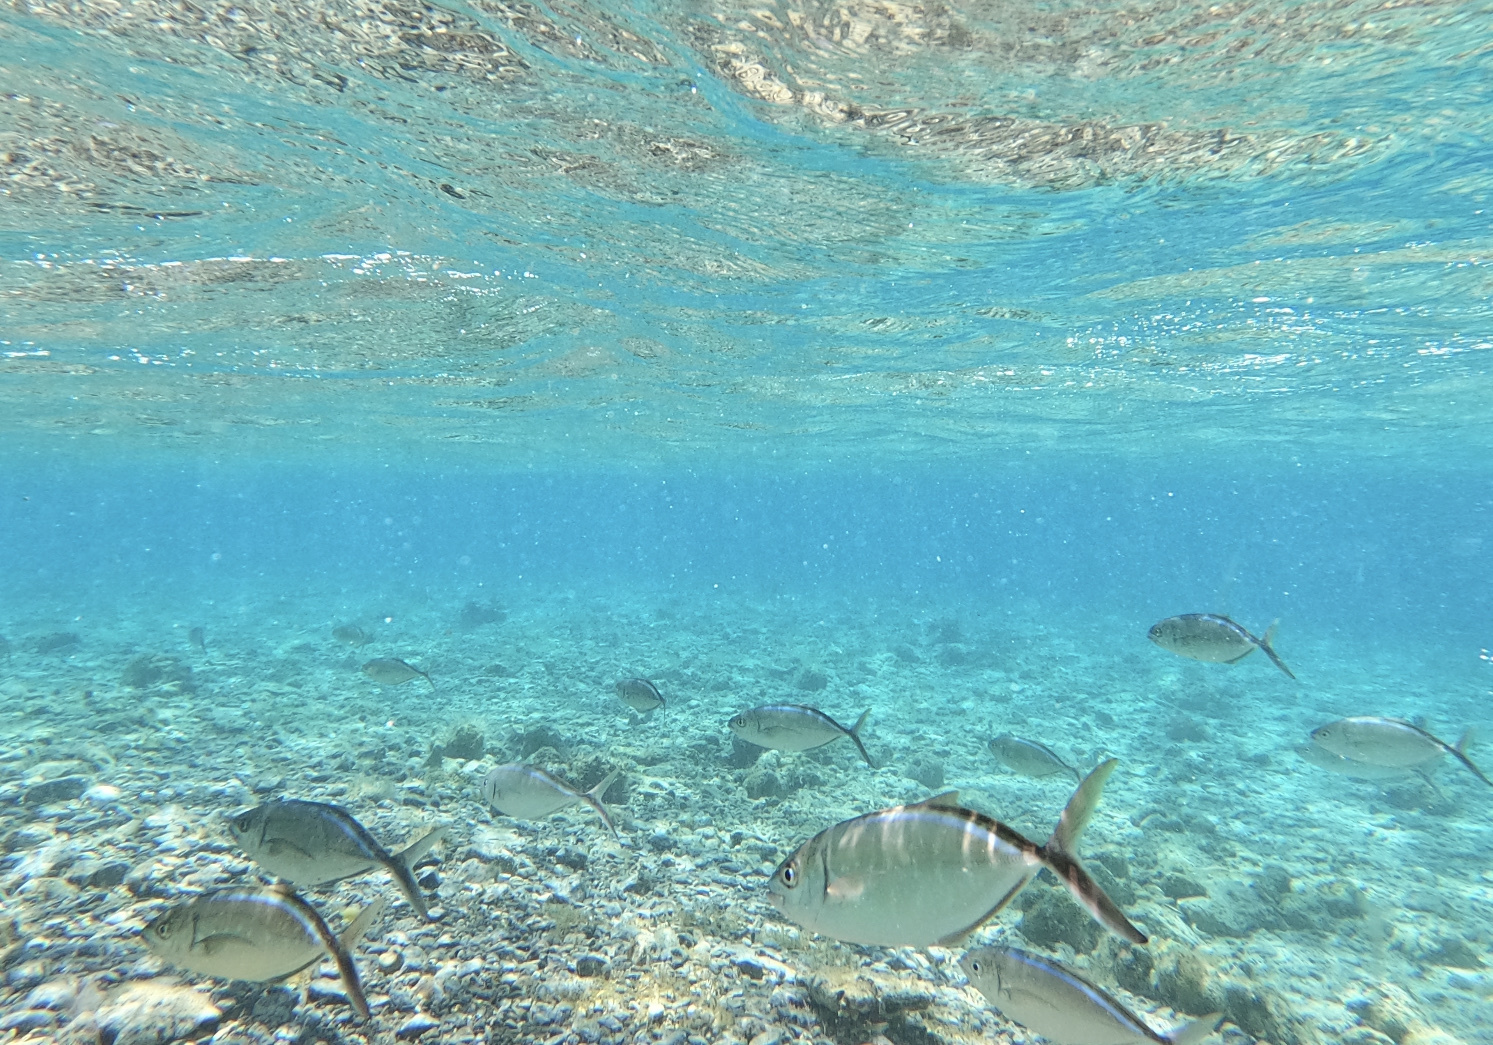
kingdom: Animalia
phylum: Chordata
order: Perciformes
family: Carangidae
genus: Caranx
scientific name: Caranx ruber
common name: Bar jack
